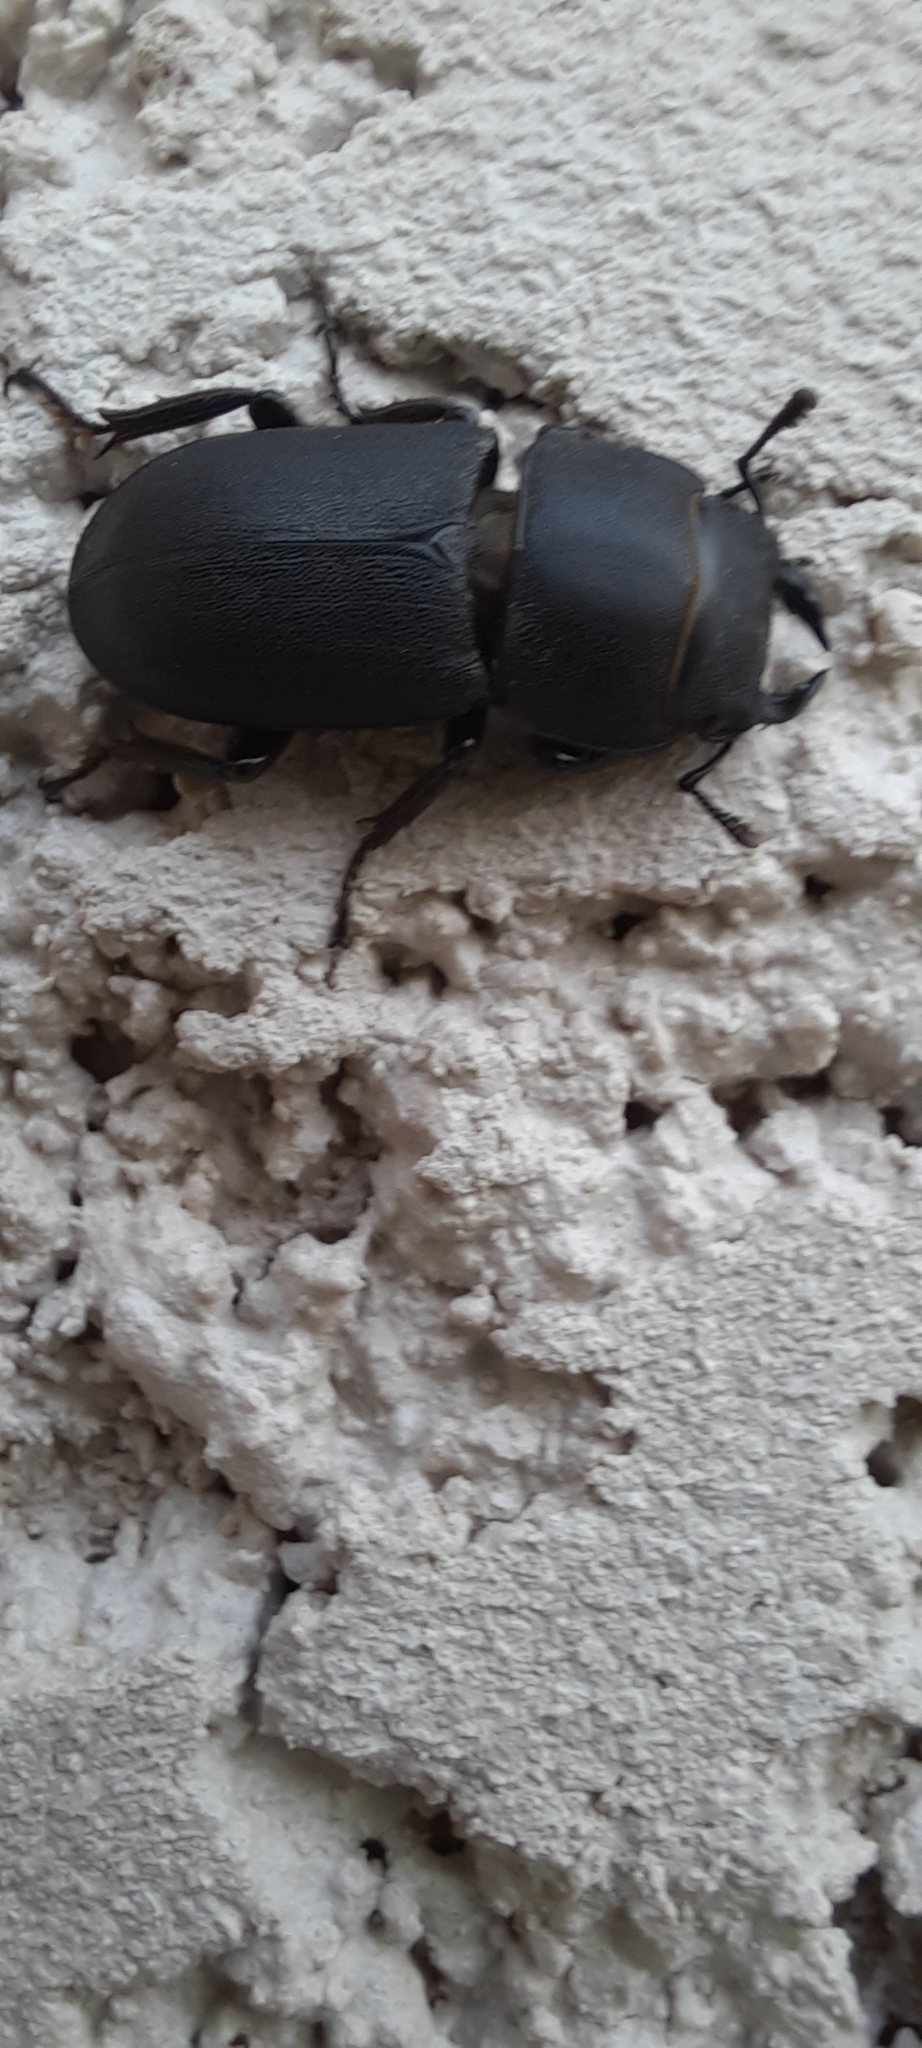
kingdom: Animalia
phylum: Arthropoda
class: Insecta
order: Coleoptera
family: Lucanidae
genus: Dorcus
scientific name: Dorcus parallelipipedus
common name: Lesser stag beetle
